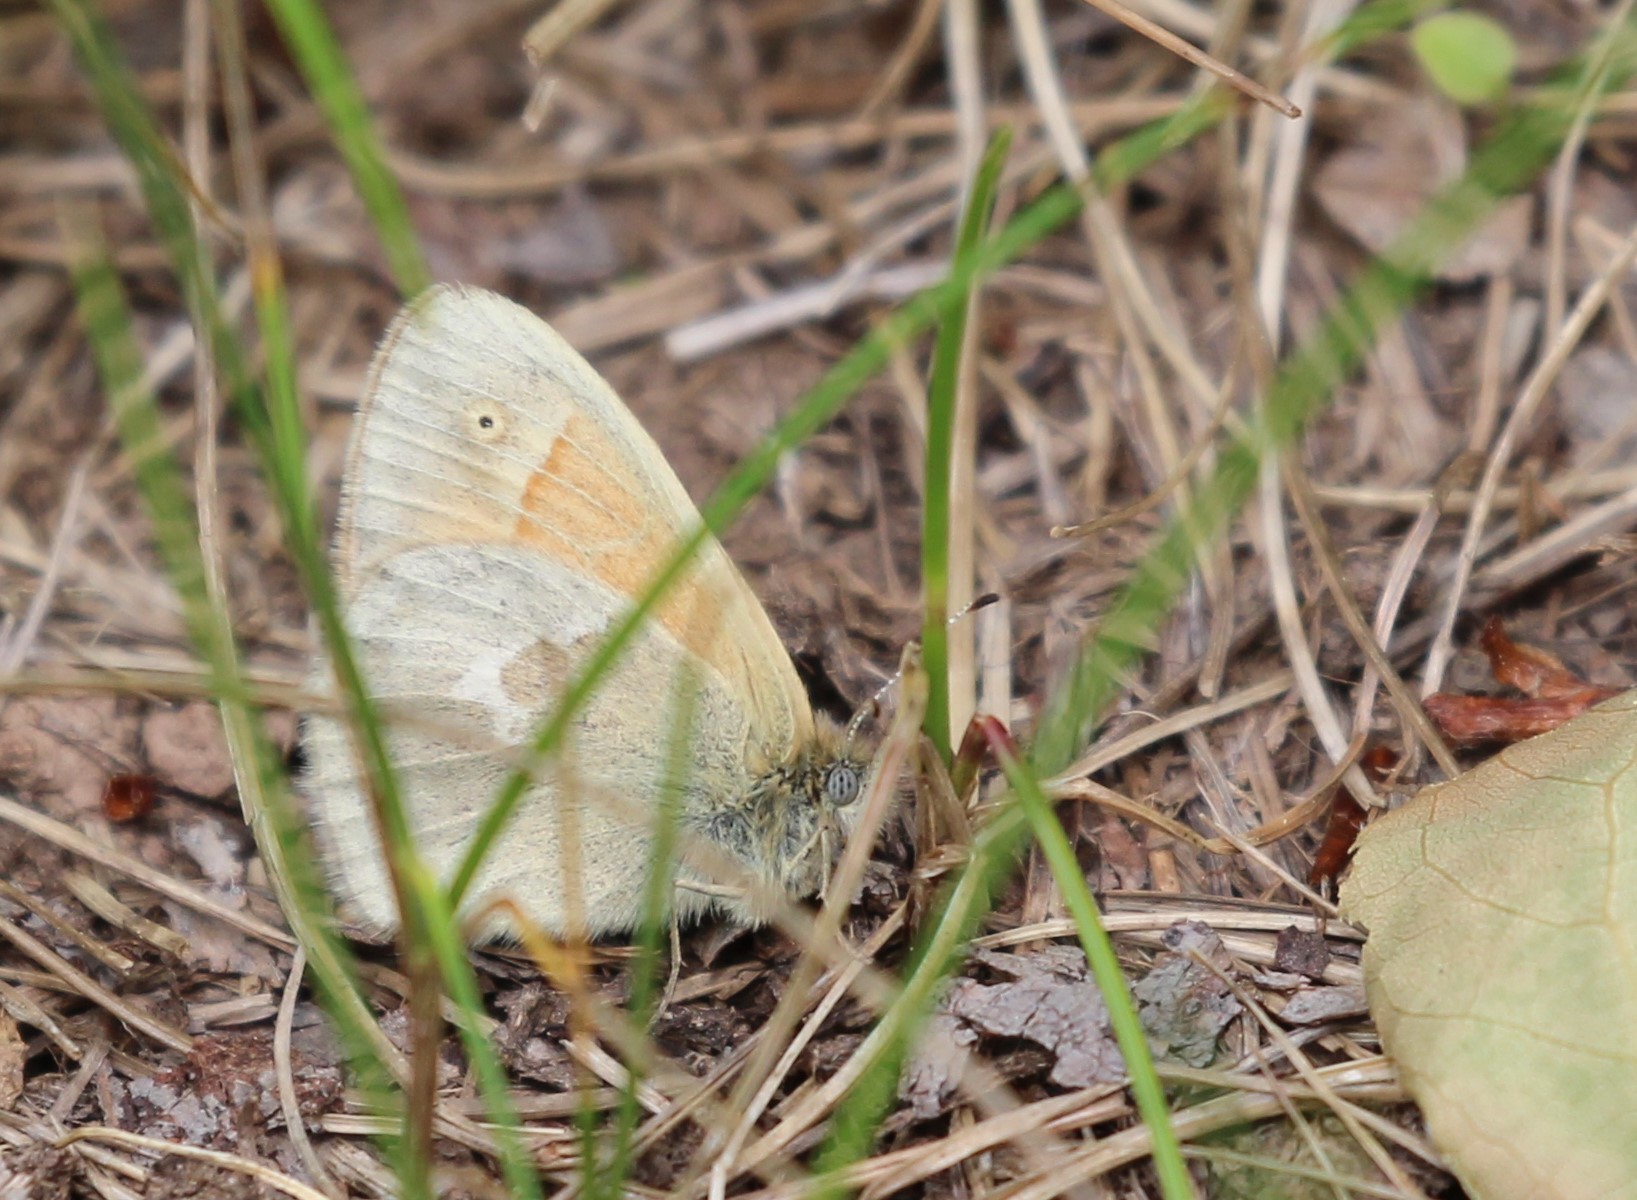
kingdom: Animalia
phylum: Arthropoda
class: Insecta
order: Lepidoptera
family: Nymphalidae
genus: Coenonympha
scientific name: Coenonympha california
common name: Common ringlet
